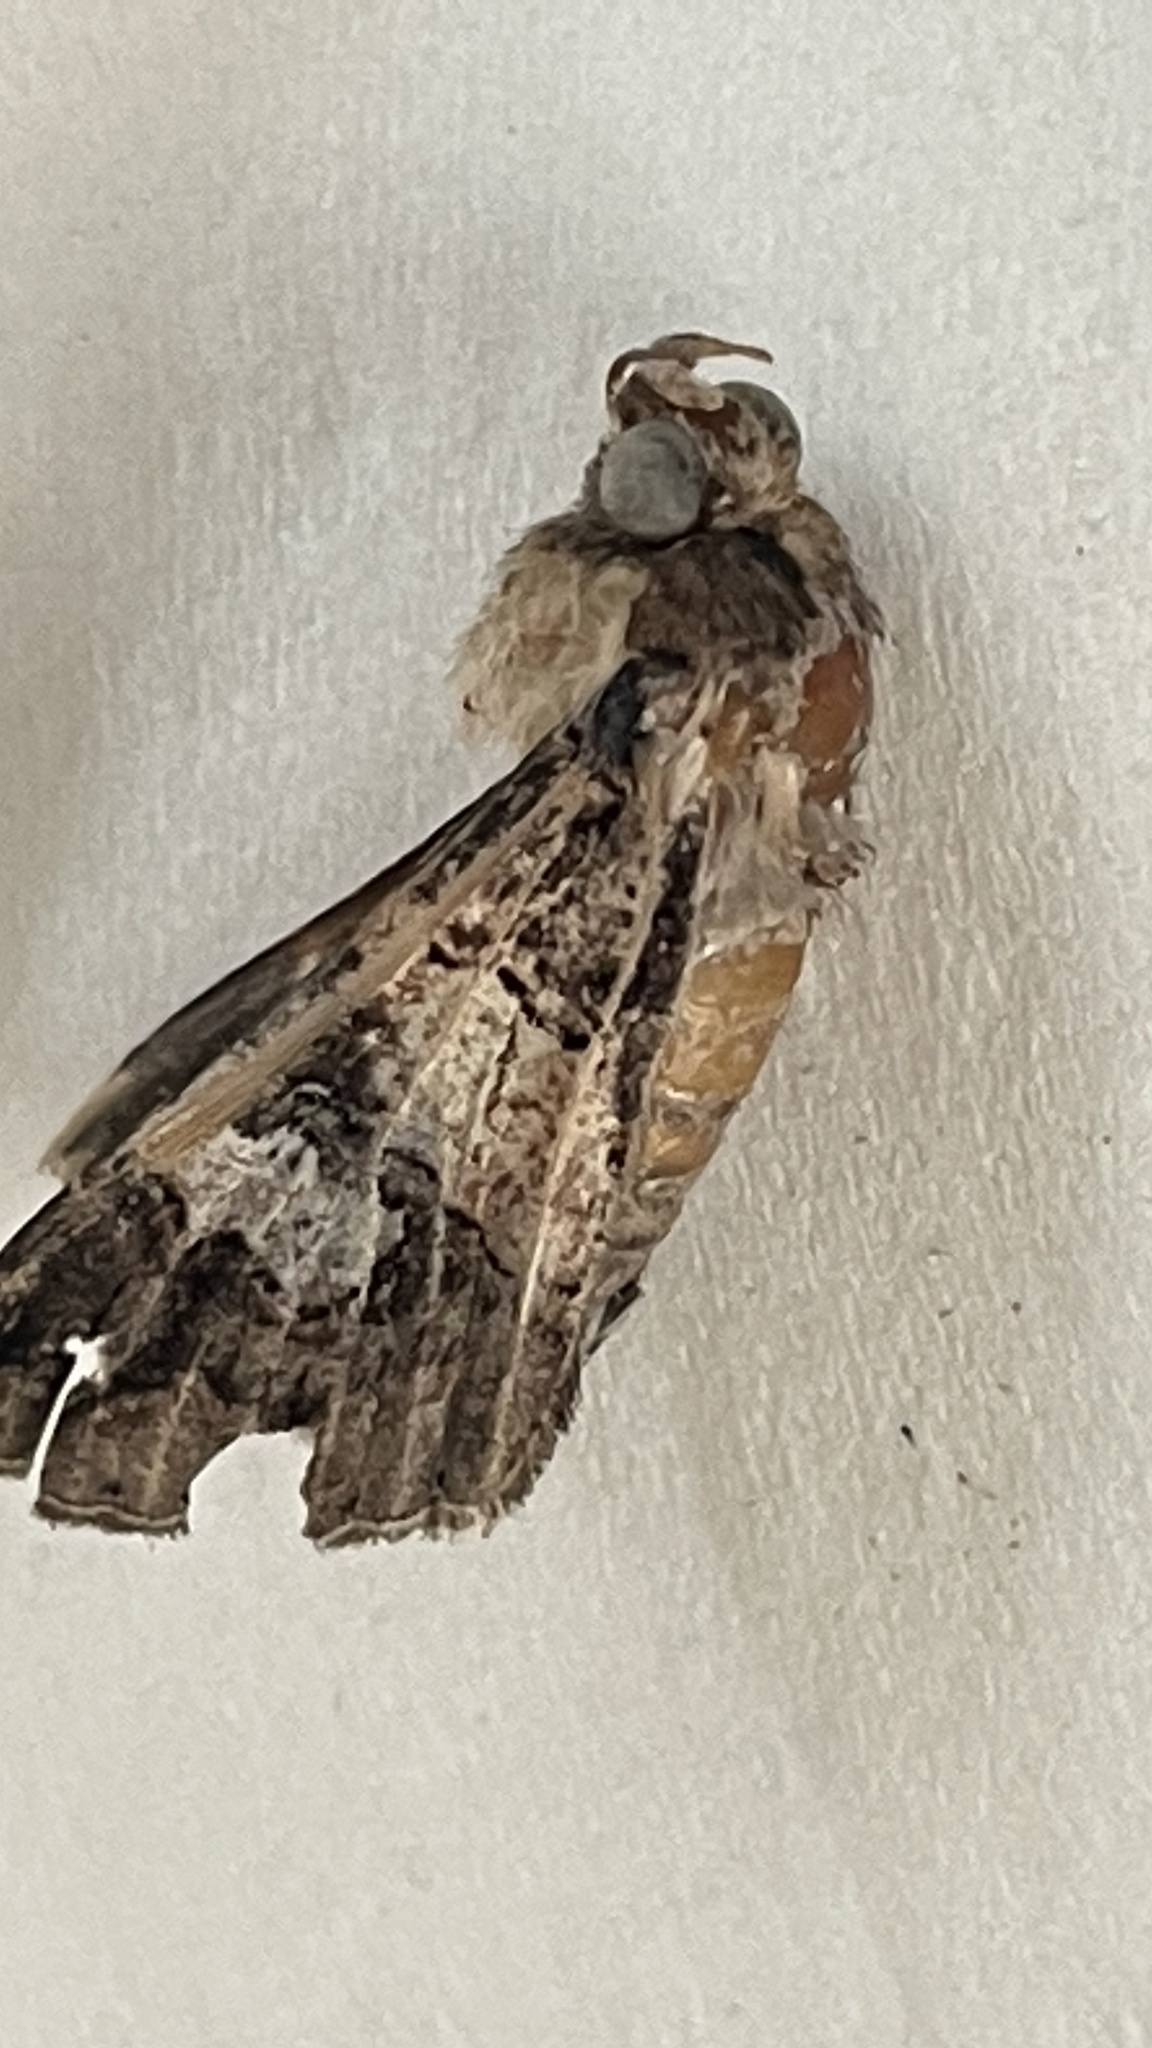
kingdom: Animalia
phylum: Arthropoda
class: Insecta
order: Lepidoptera
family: Erebidae
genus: Melipotis
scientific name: Melipotis famelica
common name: Famelica melipotis moth
